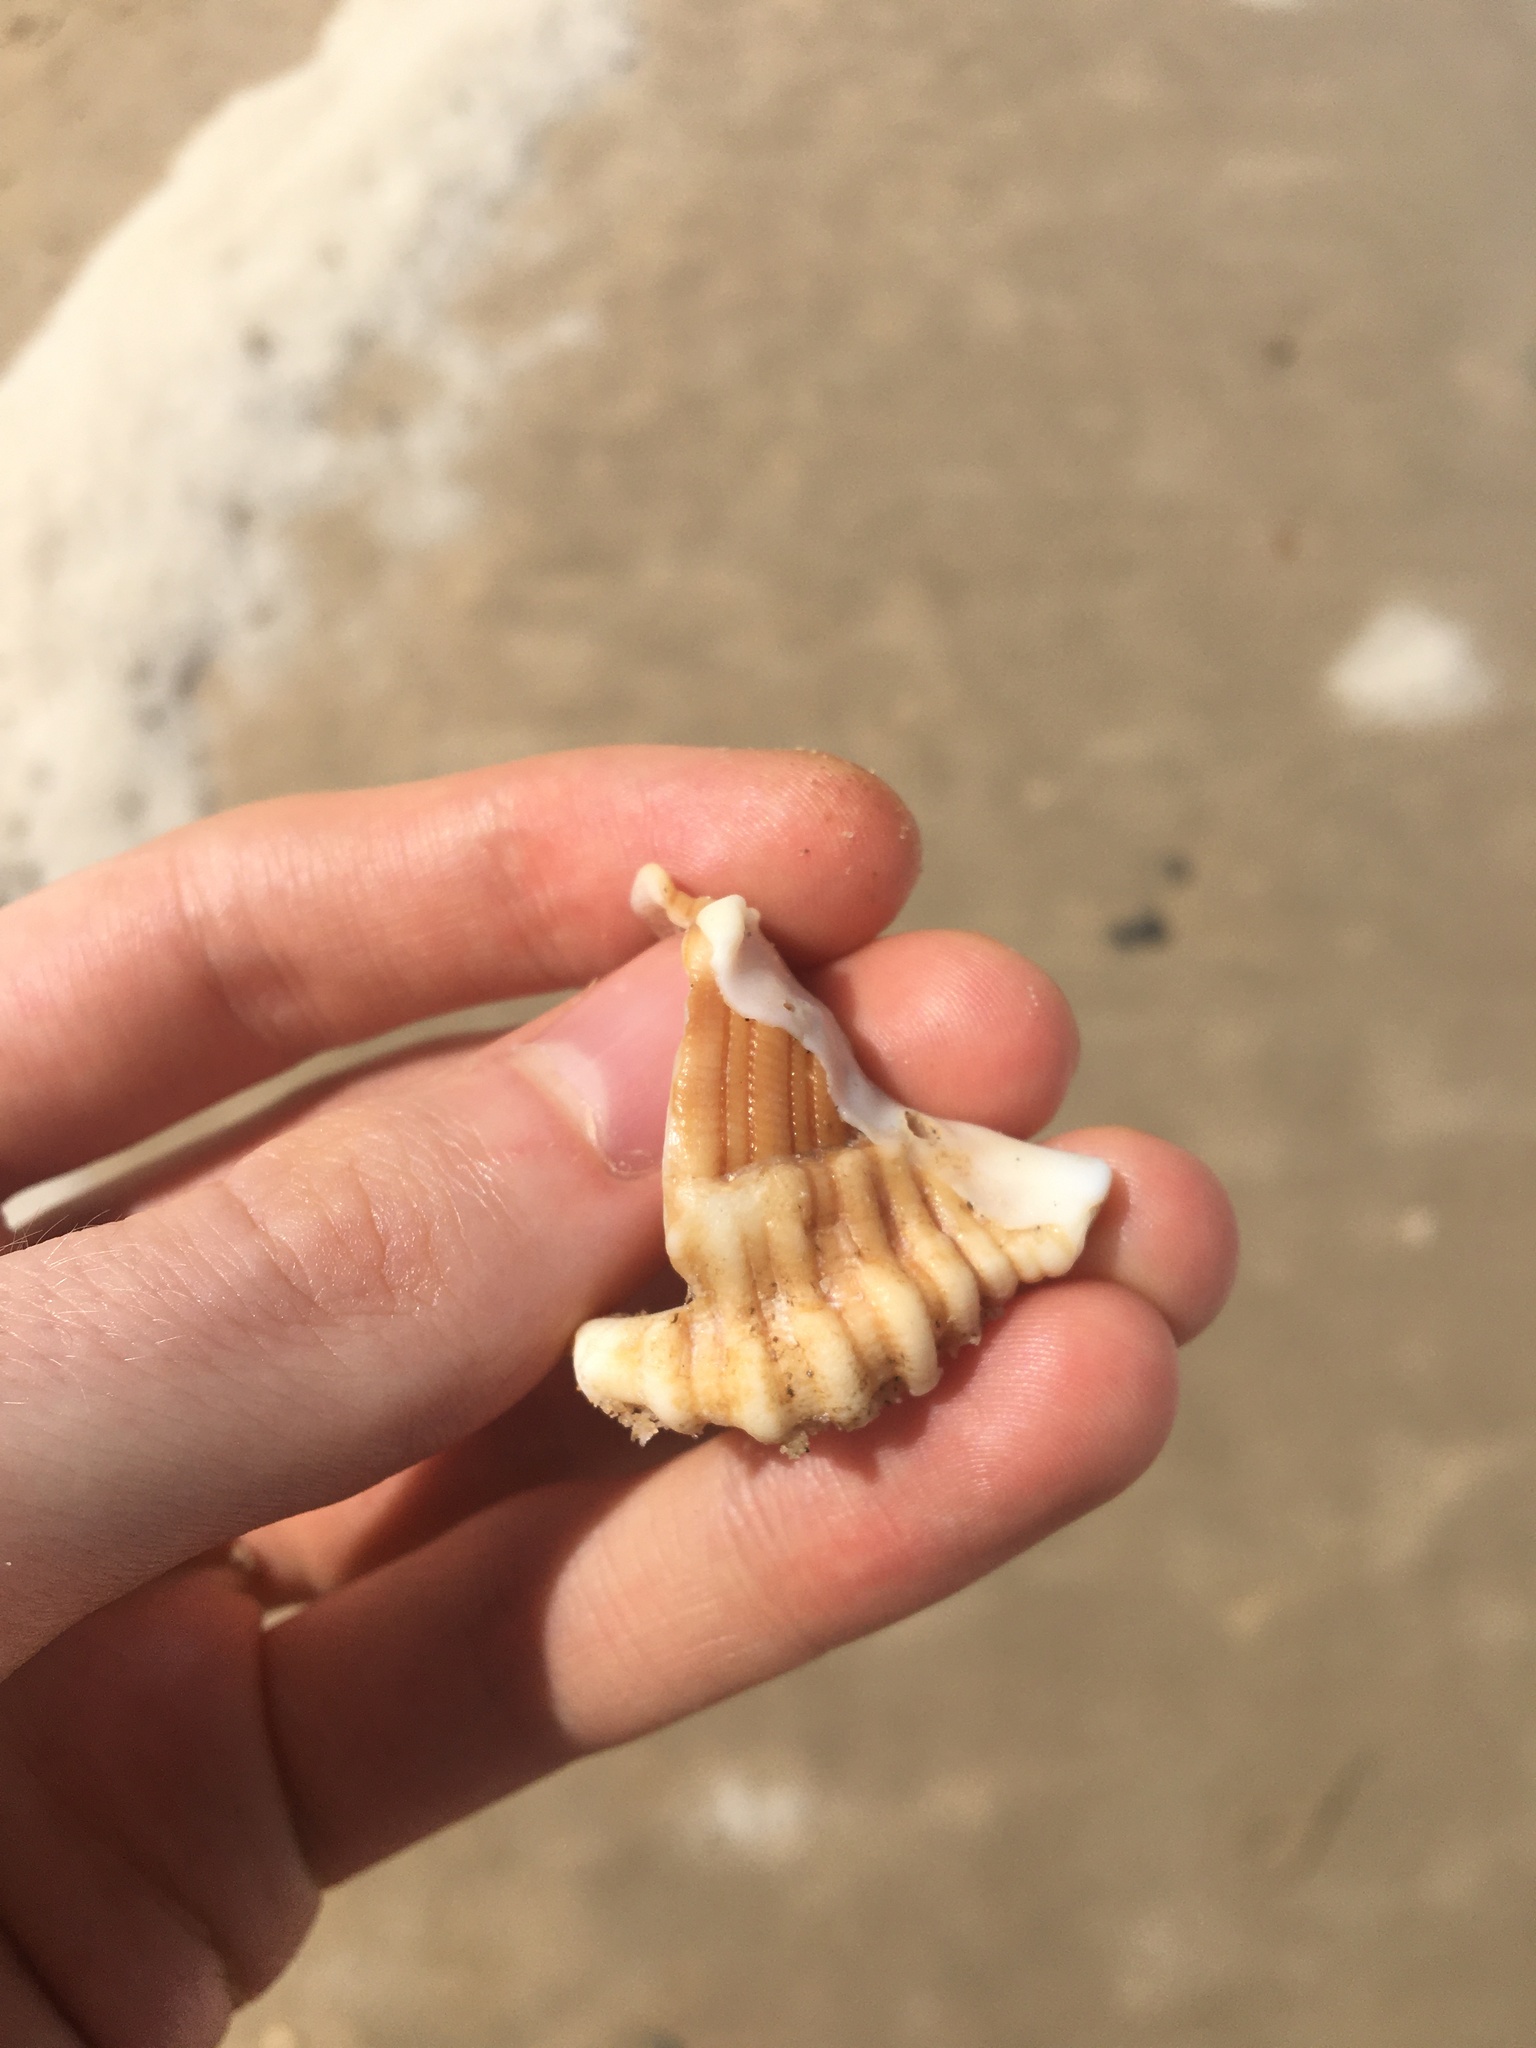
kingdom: Animalia
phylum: Mollusca
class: Gastropoda
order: Littorinimorpha
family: Cymatiidae
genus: Cabestana
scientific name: Cabestana spengleri
